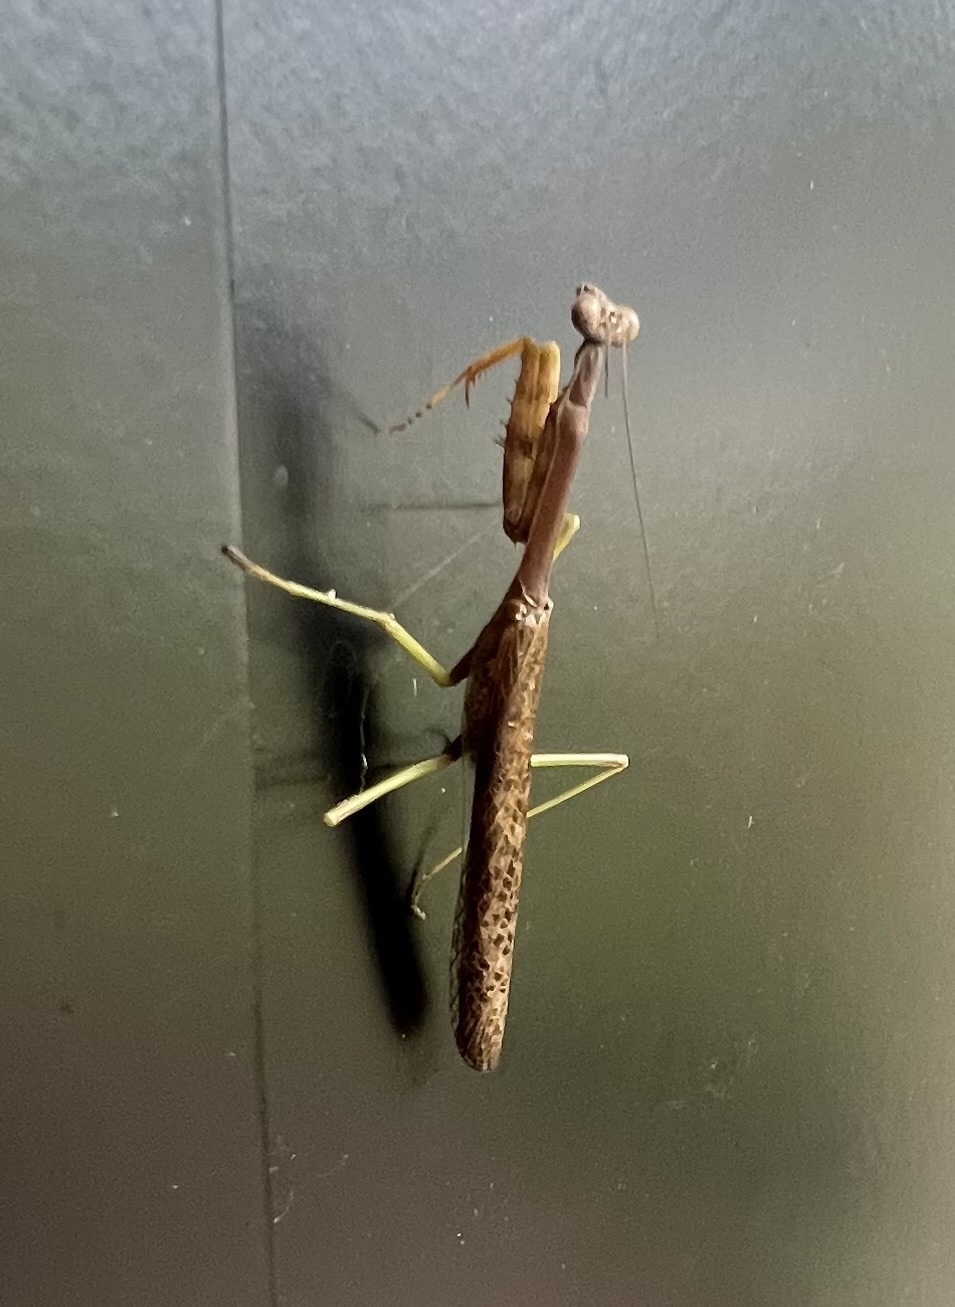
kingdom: Animalia
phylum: Arthropoda
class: Insecta
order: Mantodea
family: Mantidae
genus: Stagmomantis
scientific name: Stagmomantis carolina
